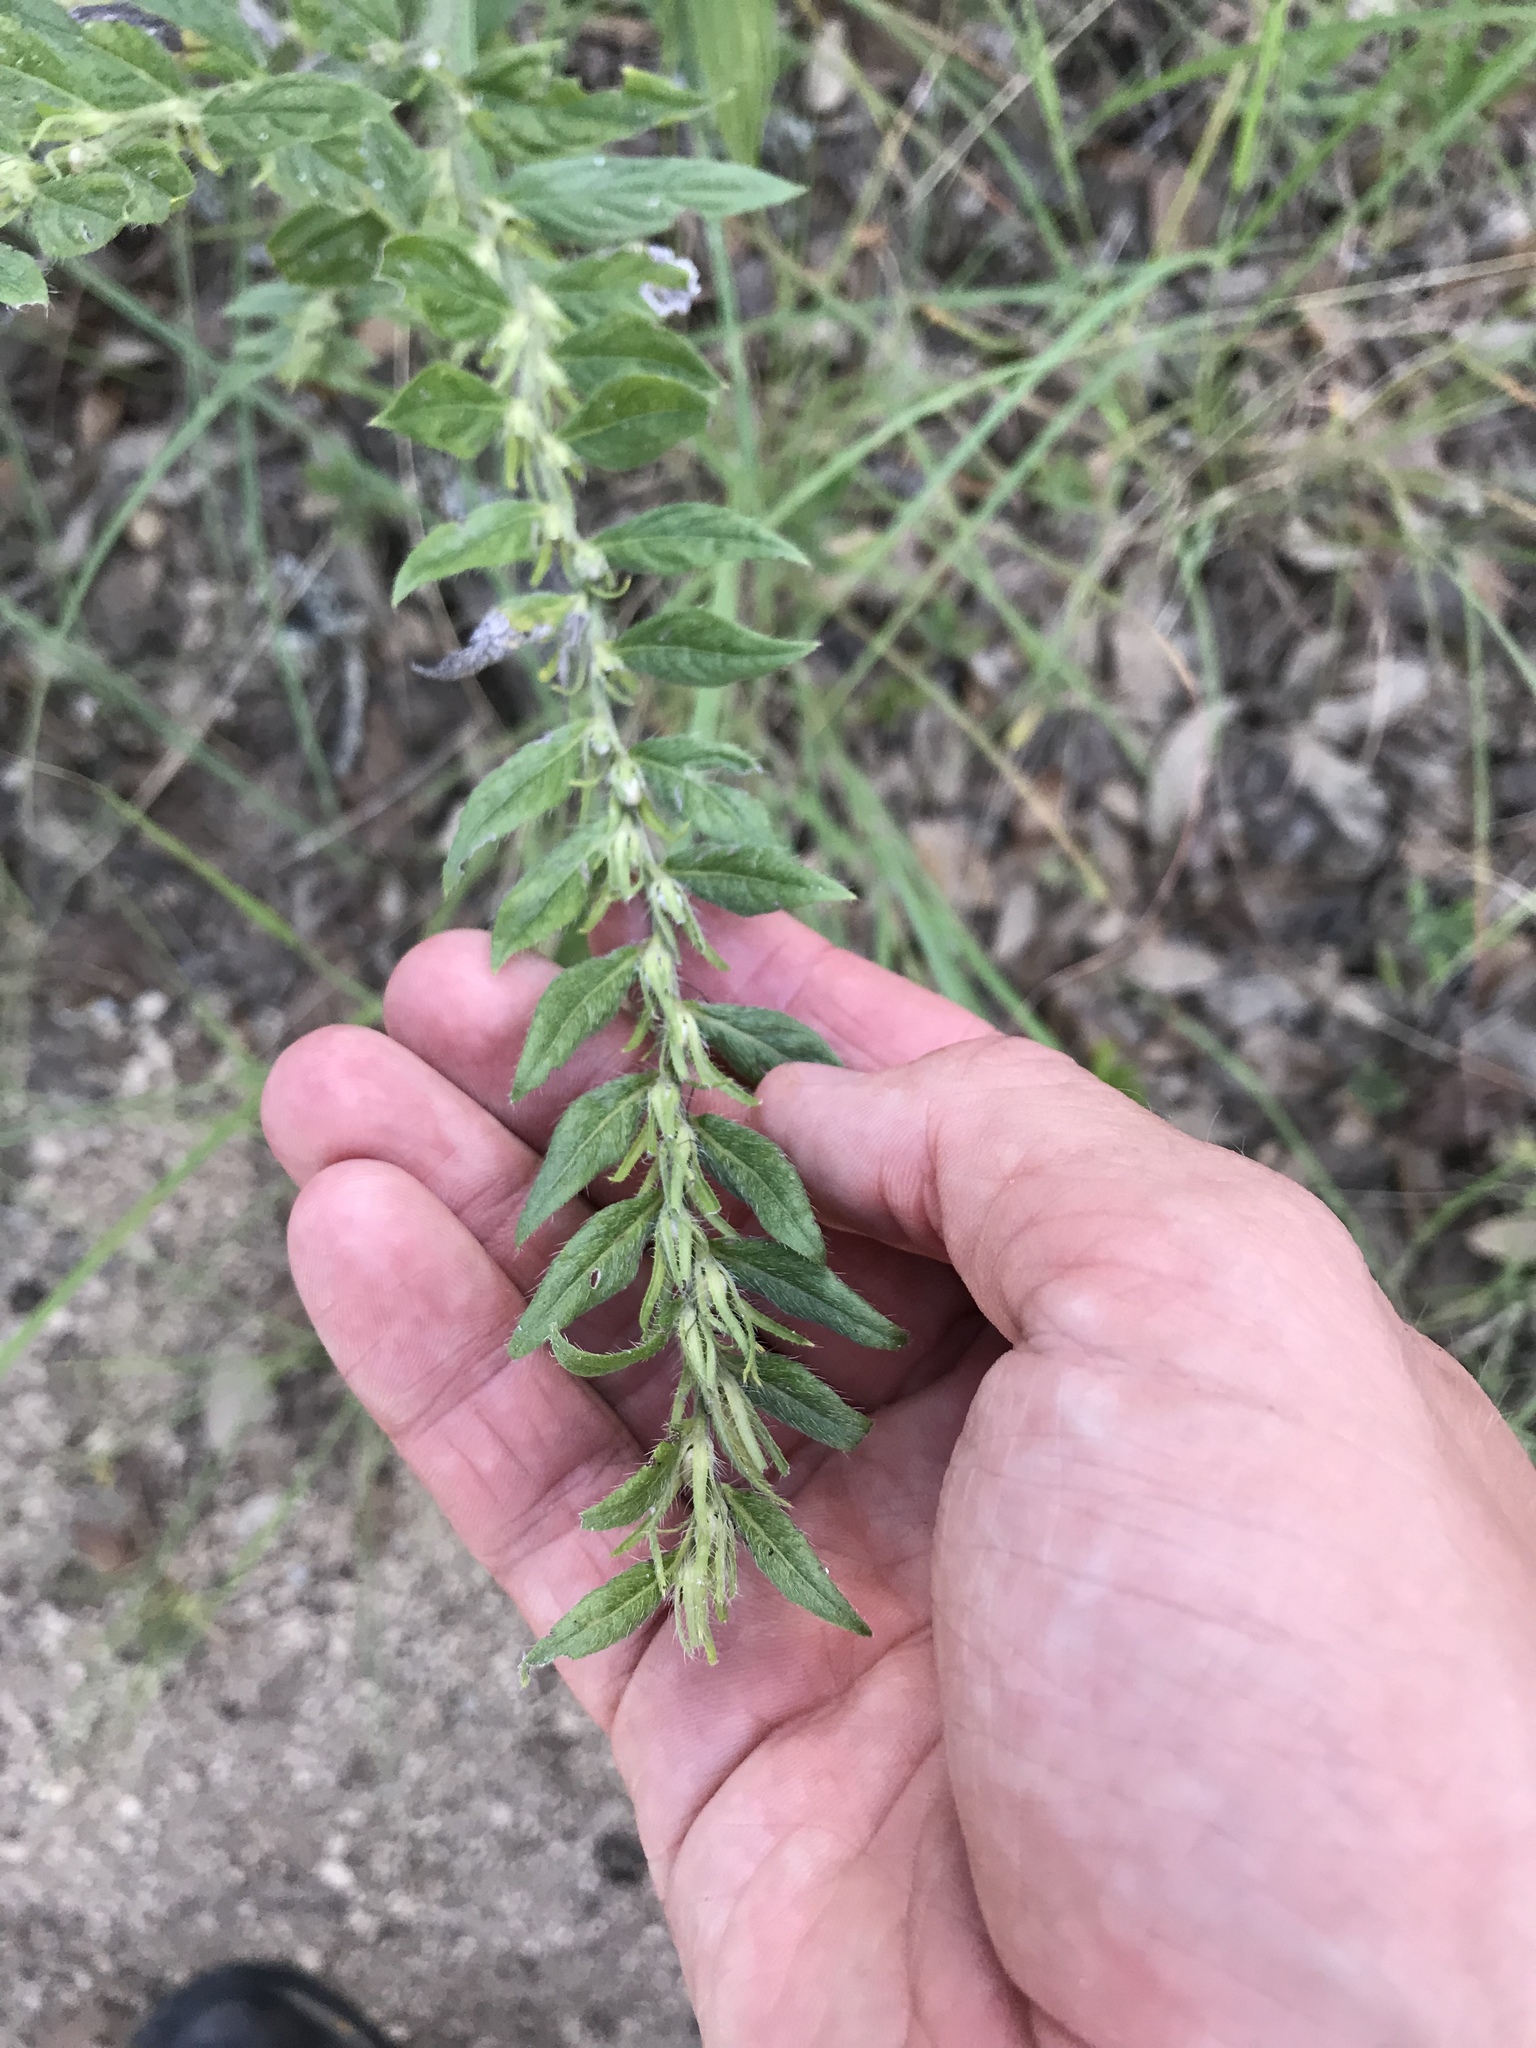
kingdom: Plantae
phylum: Tracheophyta
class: Magnoliopsida
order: Boraginales
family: Boraginaceae
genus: Lithospermum
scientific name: Lithospermum caroliniense
